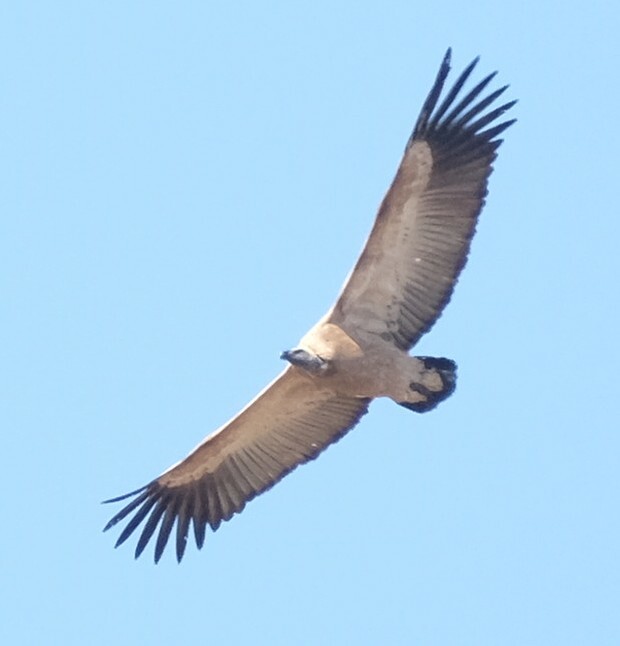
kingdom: Animalia
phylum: Chordata
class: Aves
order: Accipitriformes
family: Accipitridae
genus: Gyps
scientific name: Gyps coprotheres
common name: Cape vulture
